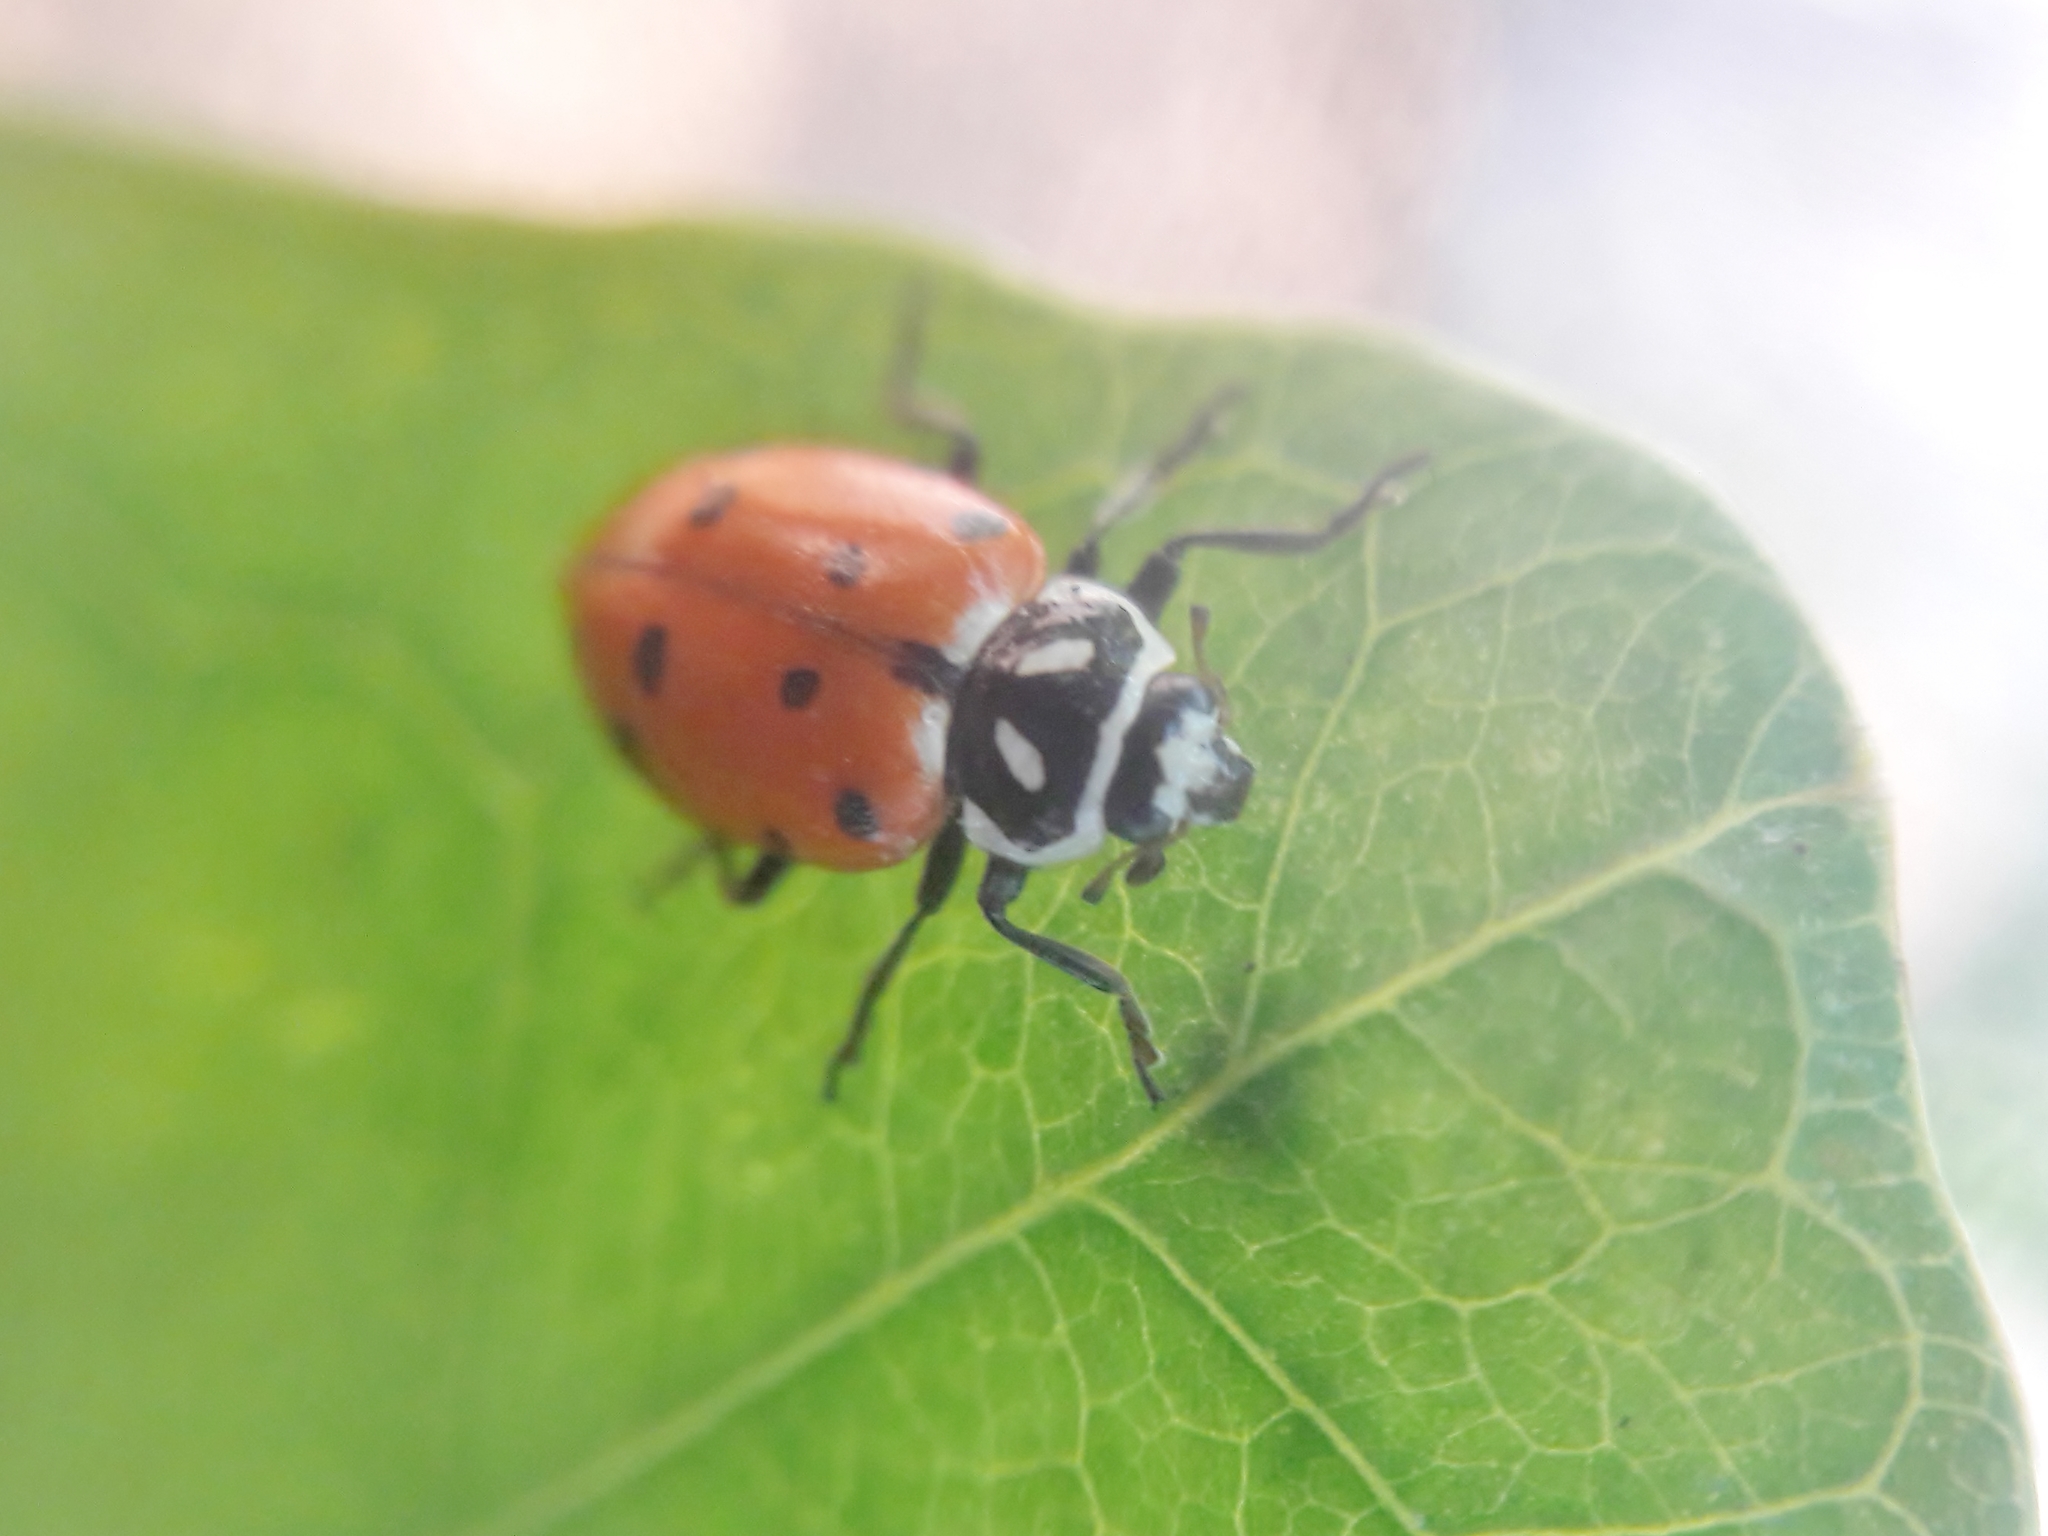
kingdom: Animalia
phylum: Arthropoda
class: Insecta
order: Coleoptera
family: Coccinellidae
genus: Hippodamia
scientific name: Hippodamia convergens
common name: Convergent lady beetle
